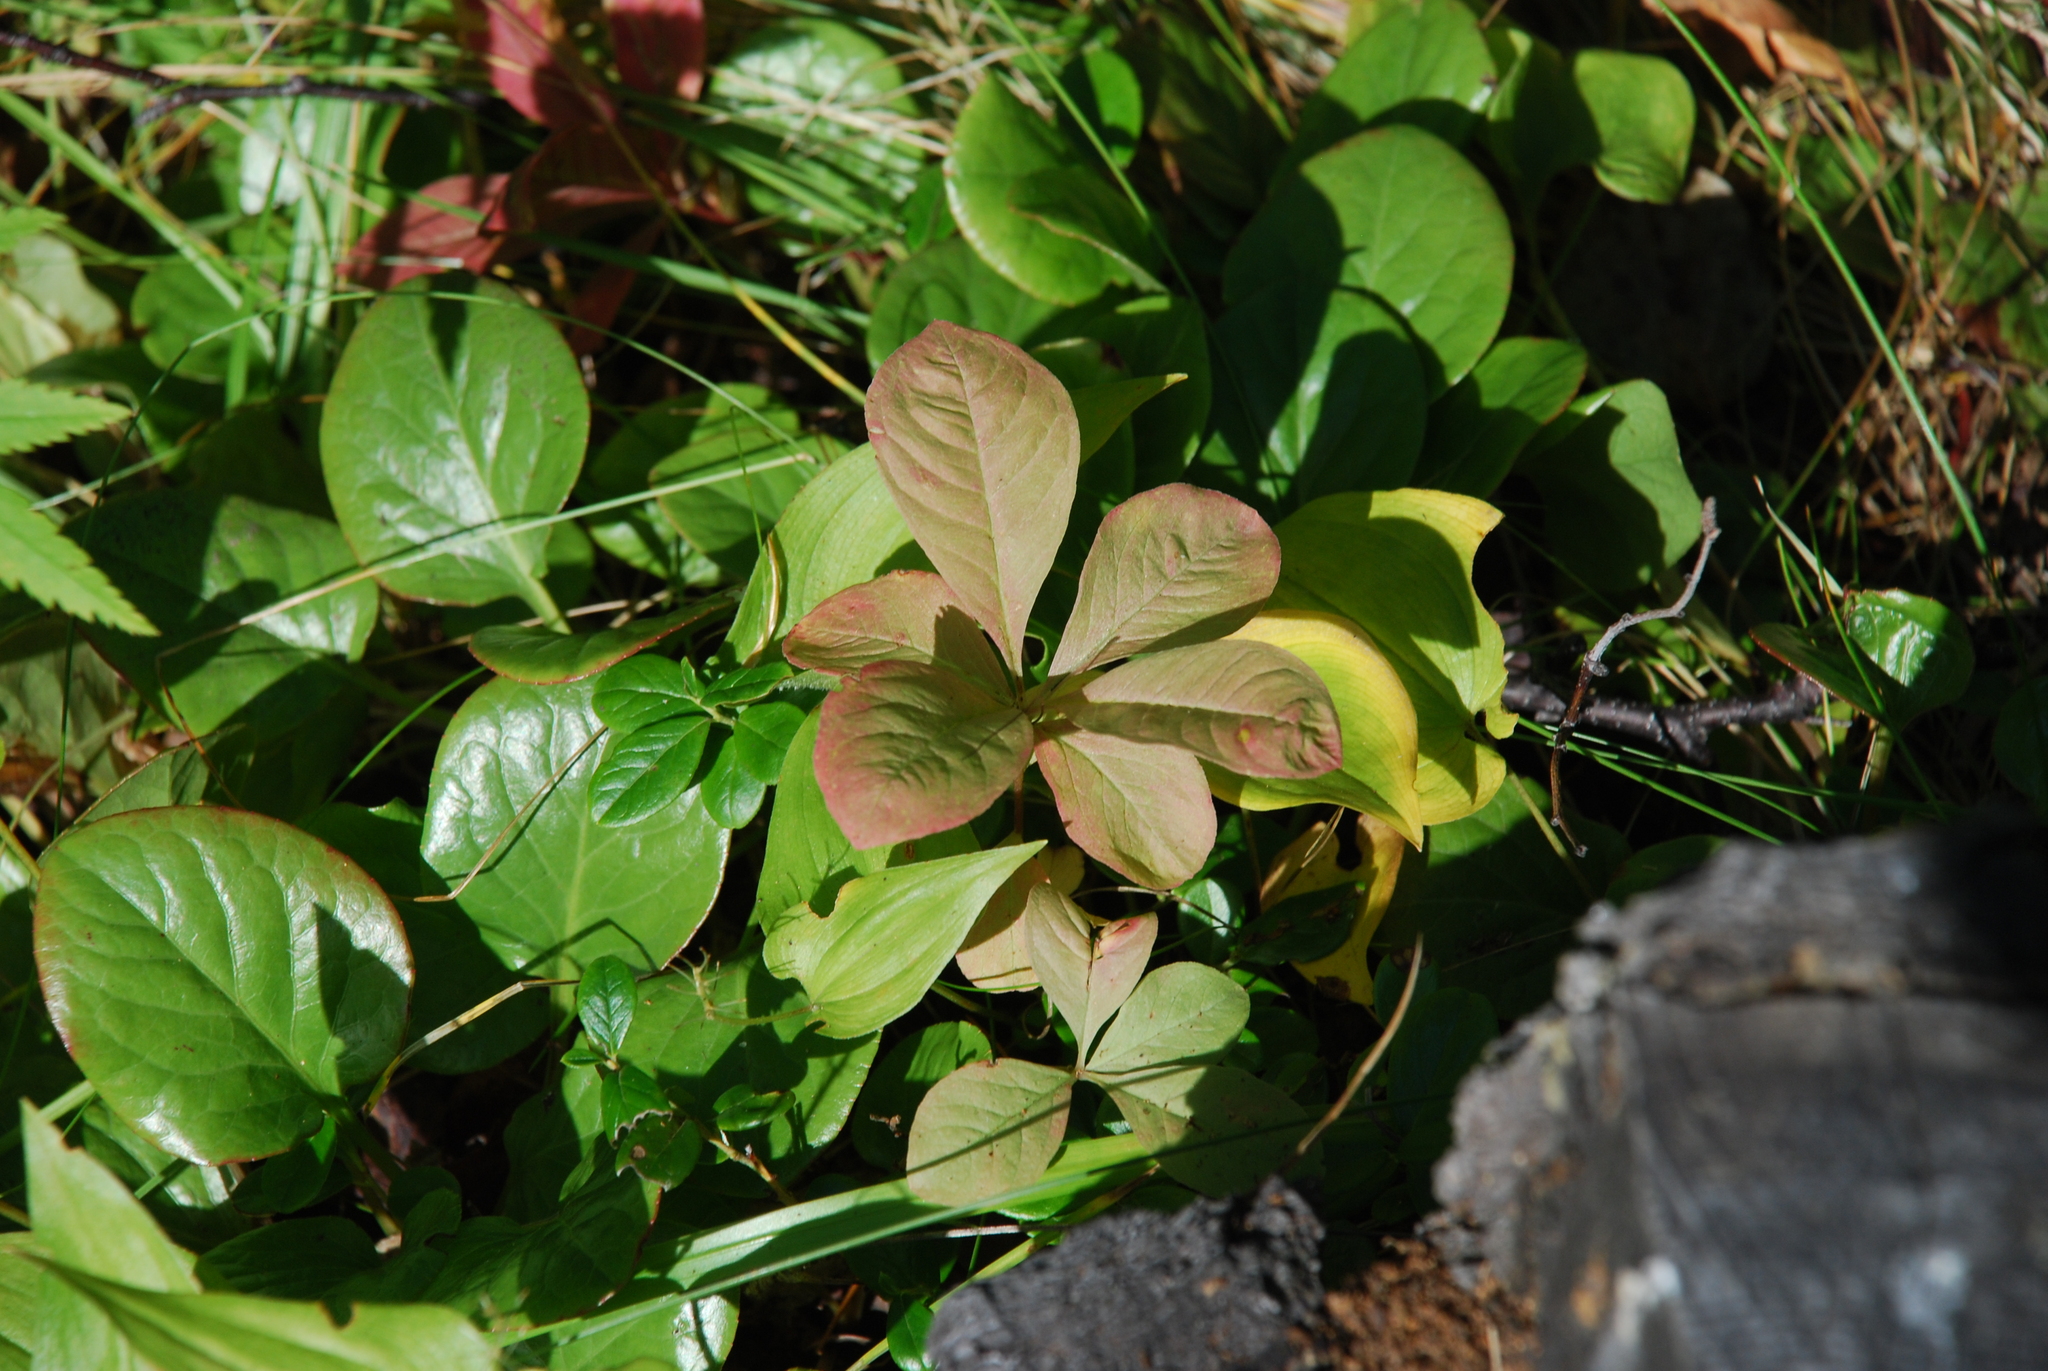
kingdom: Plantae
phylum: Tracheophyta
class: Magnoliopsida
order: Ericales
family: Primulaceae
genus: Lysimachia
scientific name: Lysimachia europaea
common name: Arctic starflower
